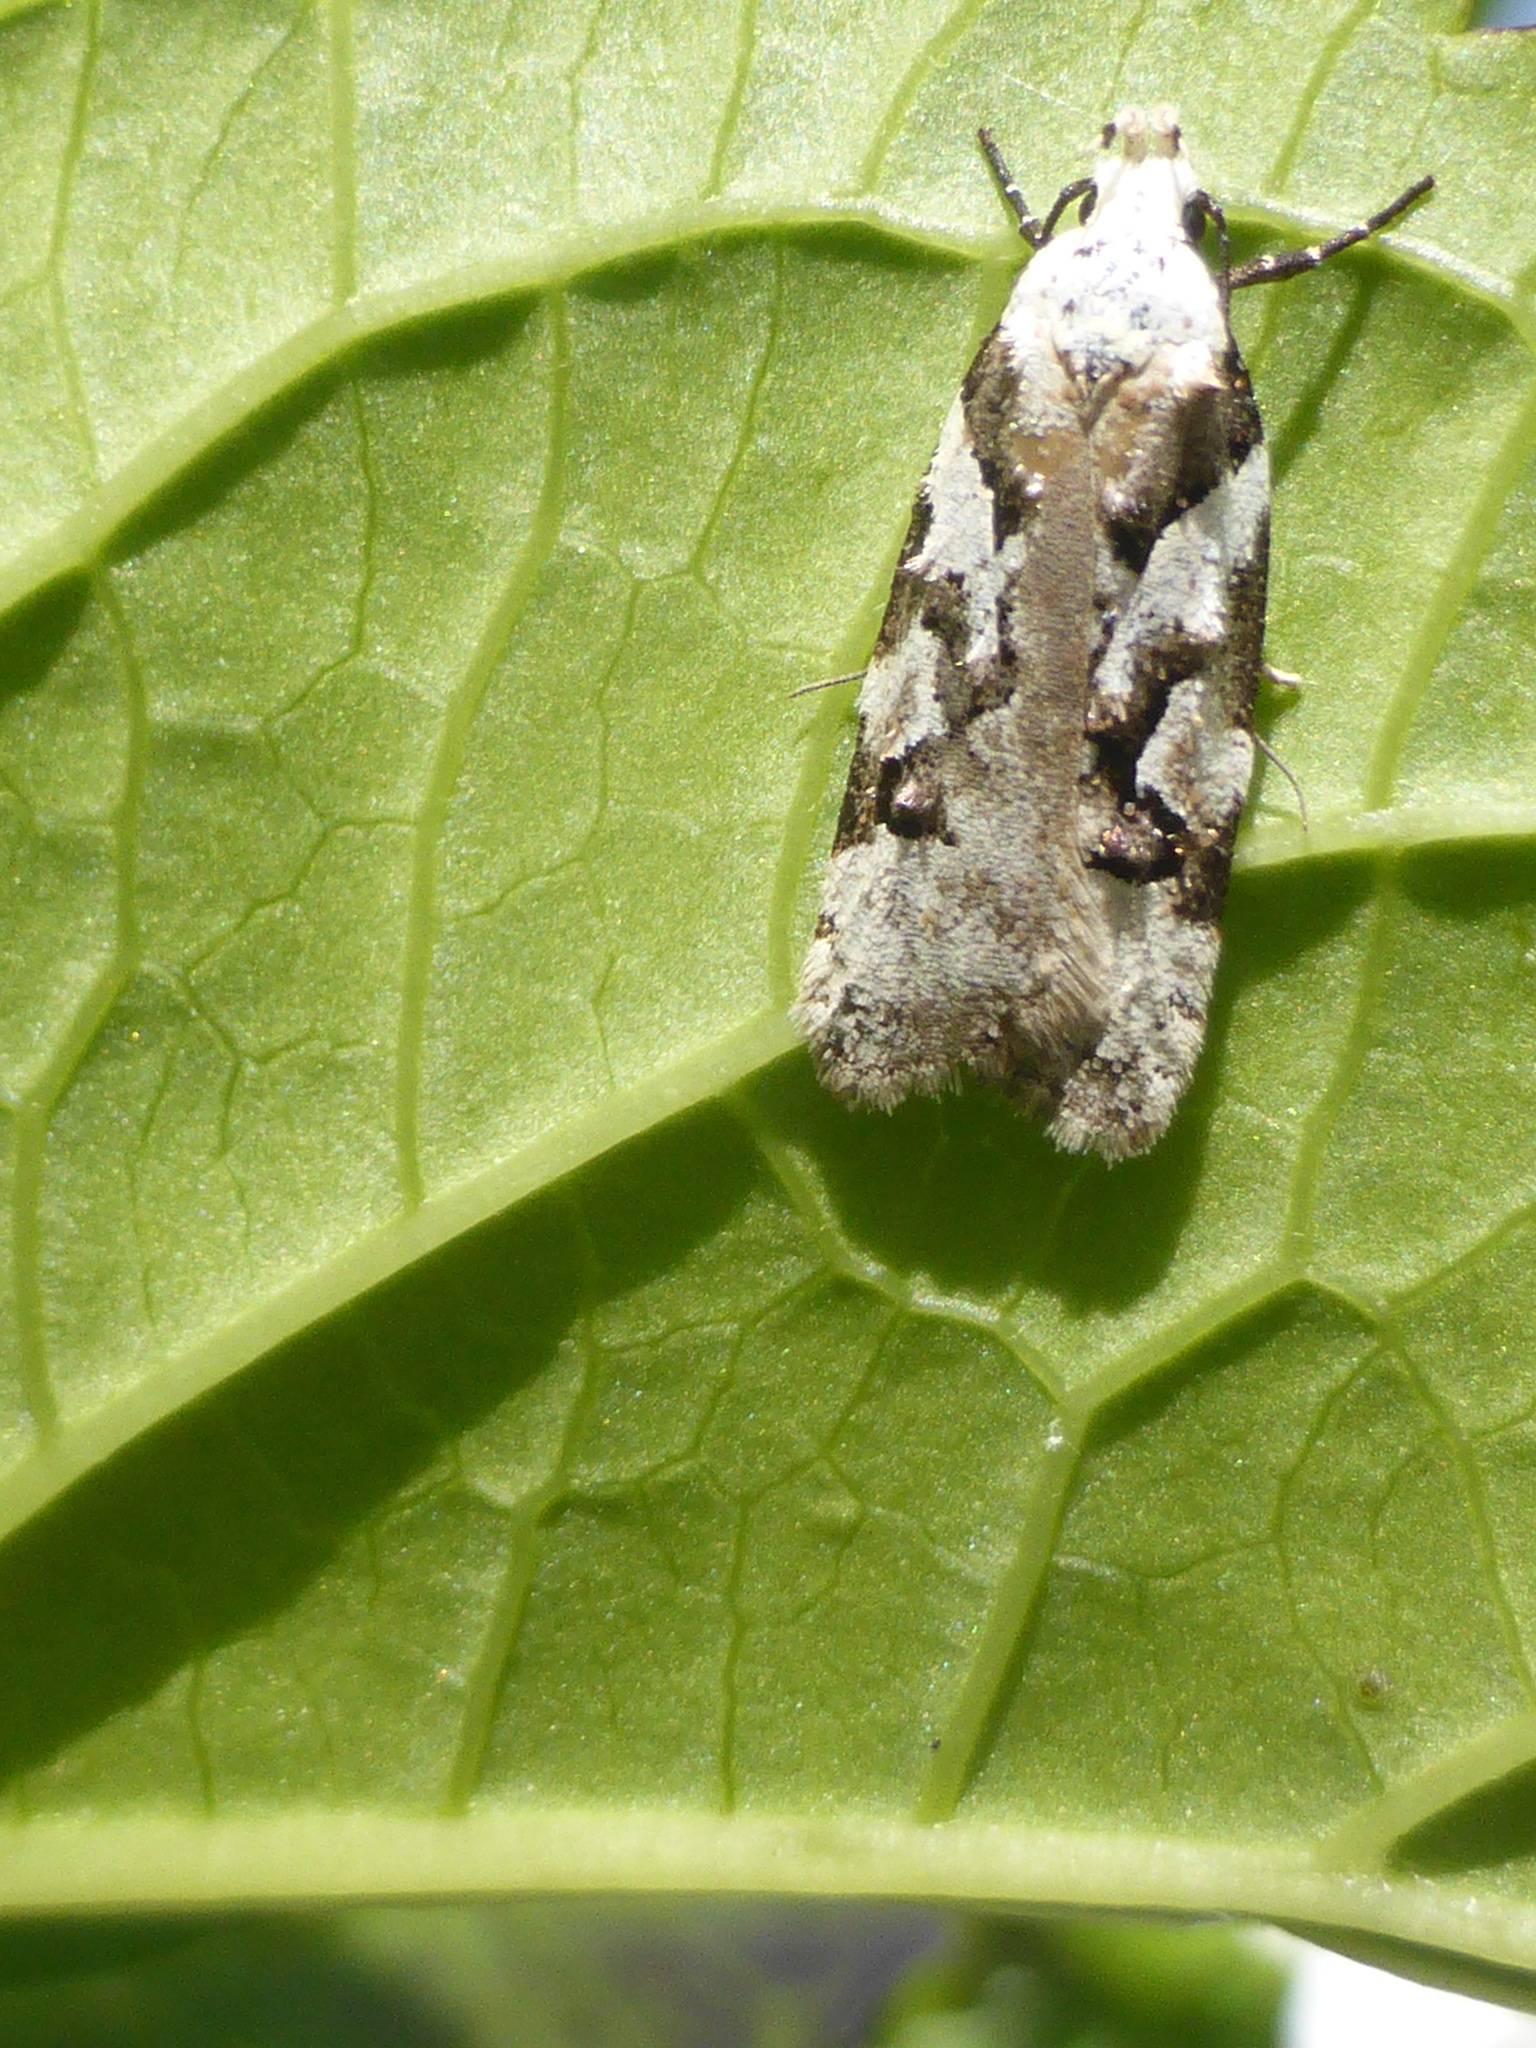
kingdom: Animalia
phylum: Arthropoda
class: Insecta
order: Lepidoptera
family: Oecophoridae
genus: Izatha
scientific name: Izatha epiphanes
